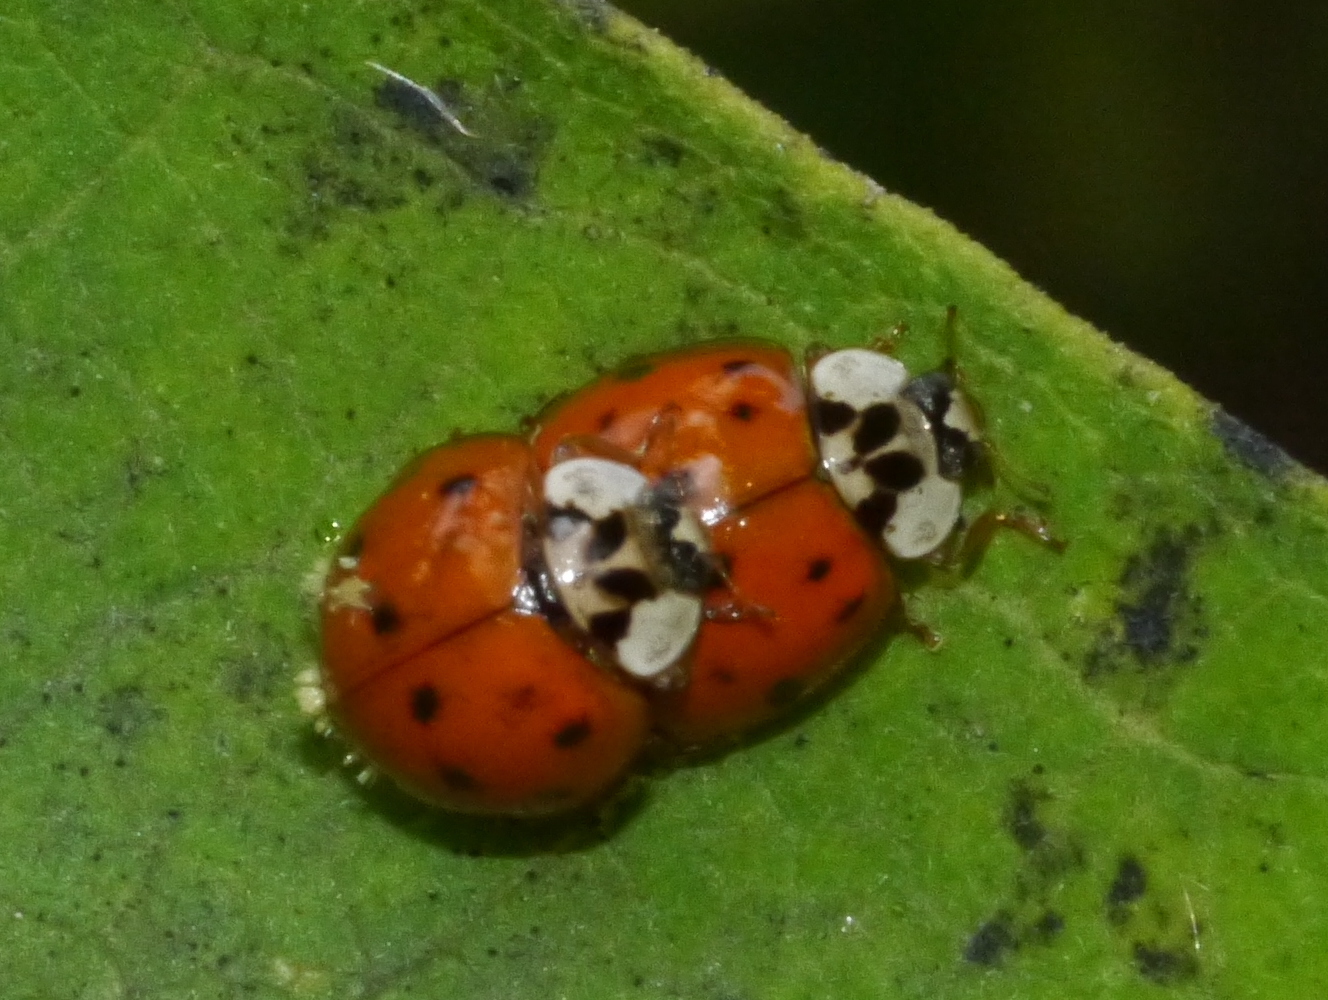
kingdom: Animalia
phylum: Arthropoda
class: Insecta
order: Coleoptera
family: Coccinellidae
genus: Harmonia
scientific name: Harmonia axyridis
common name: Harlequin ladybird
